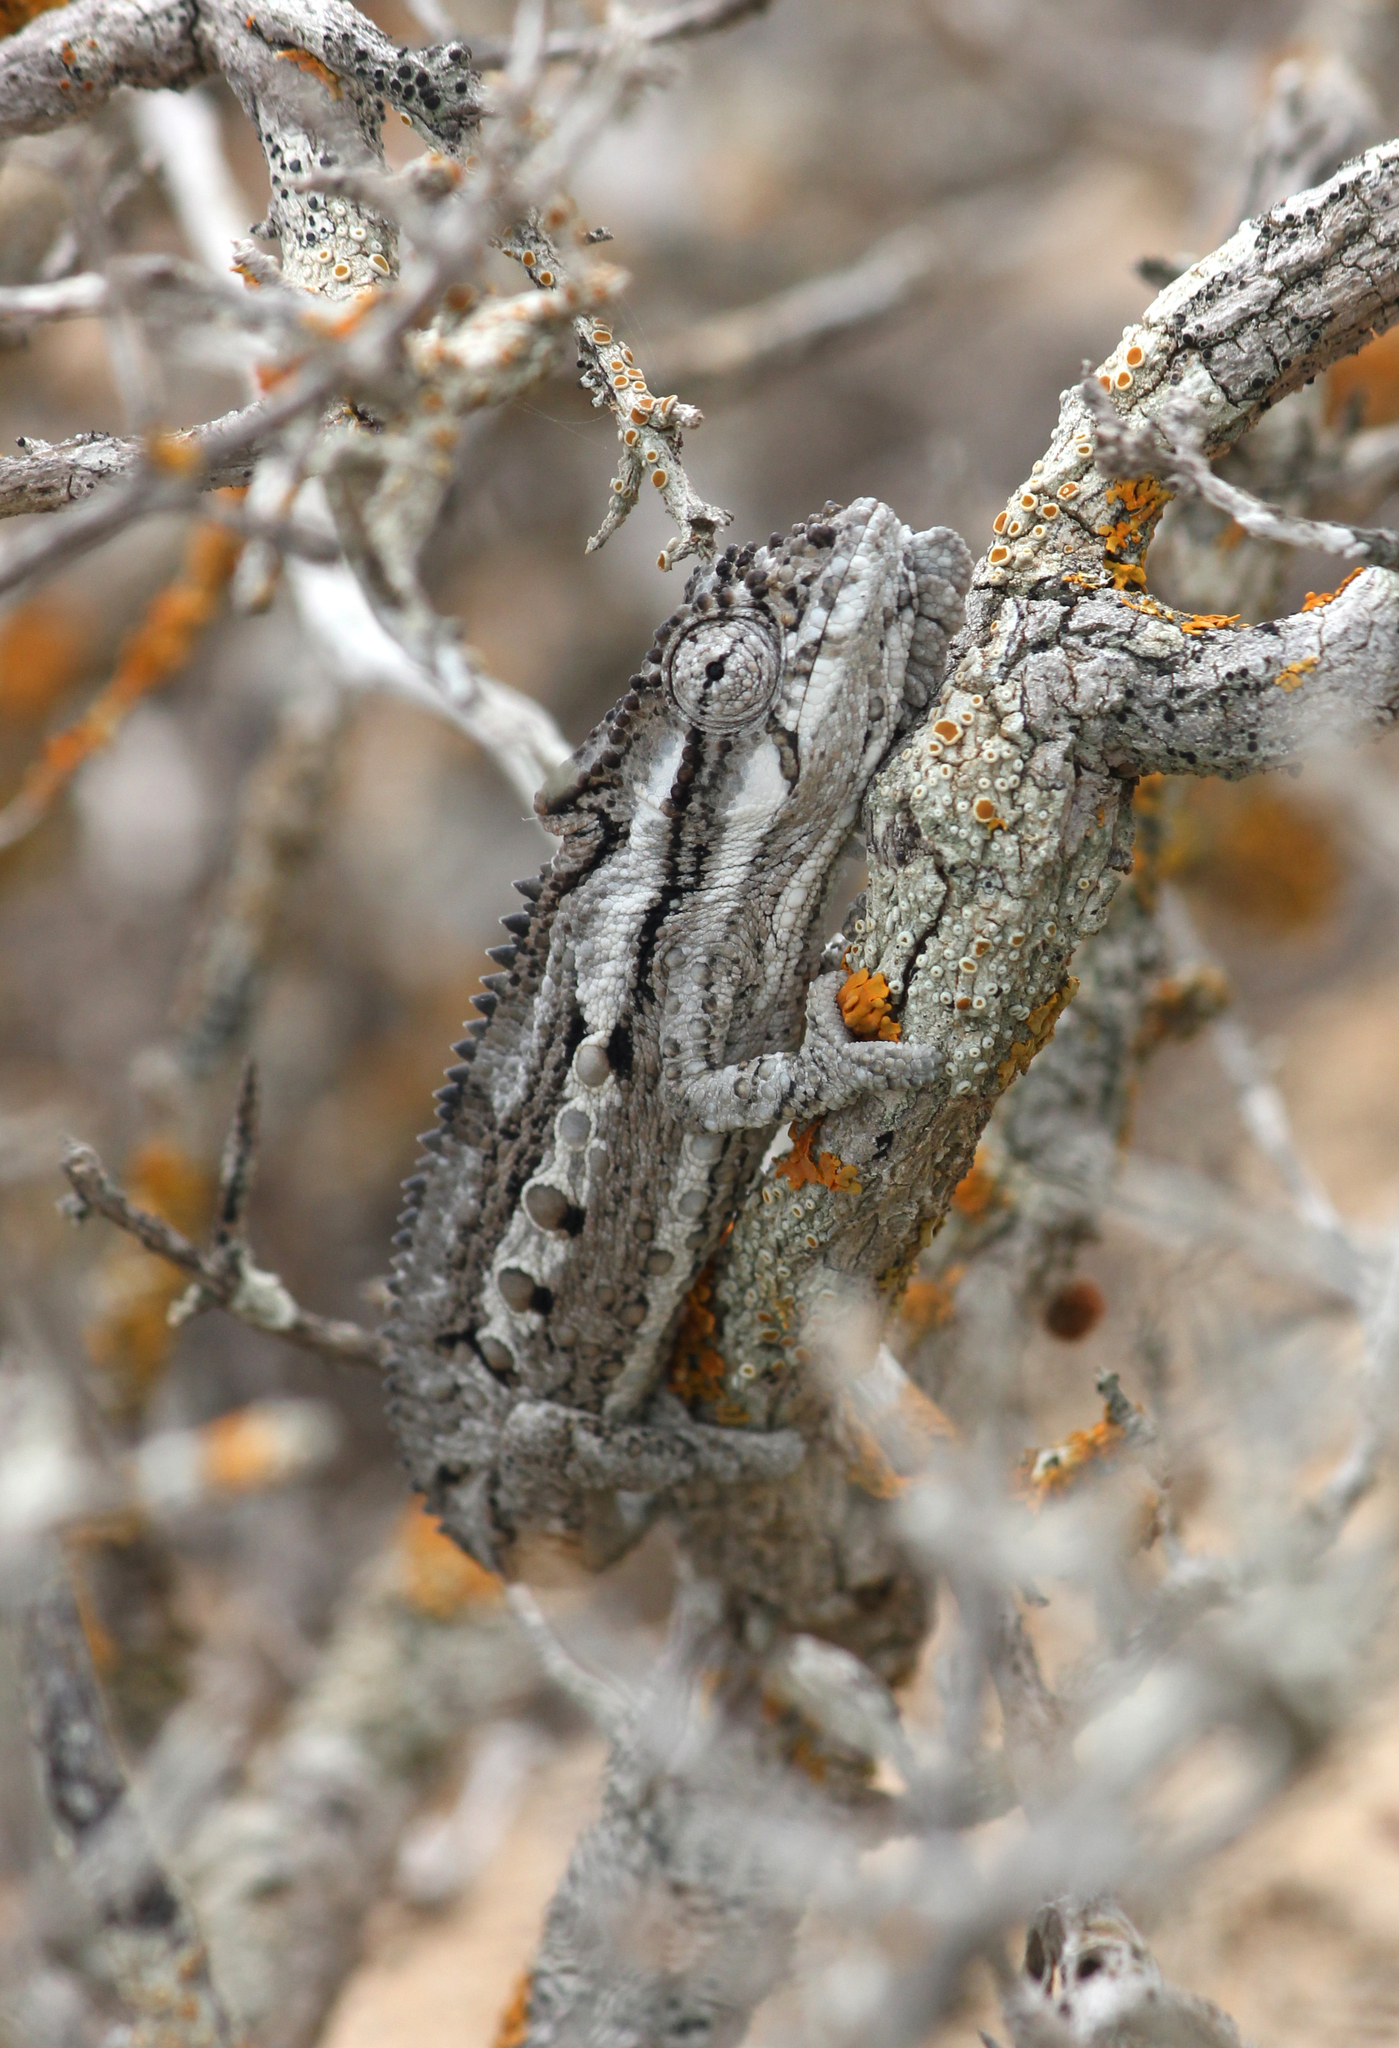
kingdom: Animalia
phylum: Chordata
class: Squamata
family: Chamaeleonidae
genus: Bradypodion
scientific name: Bradypodion occidentale
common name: Western dwarf chameleon
